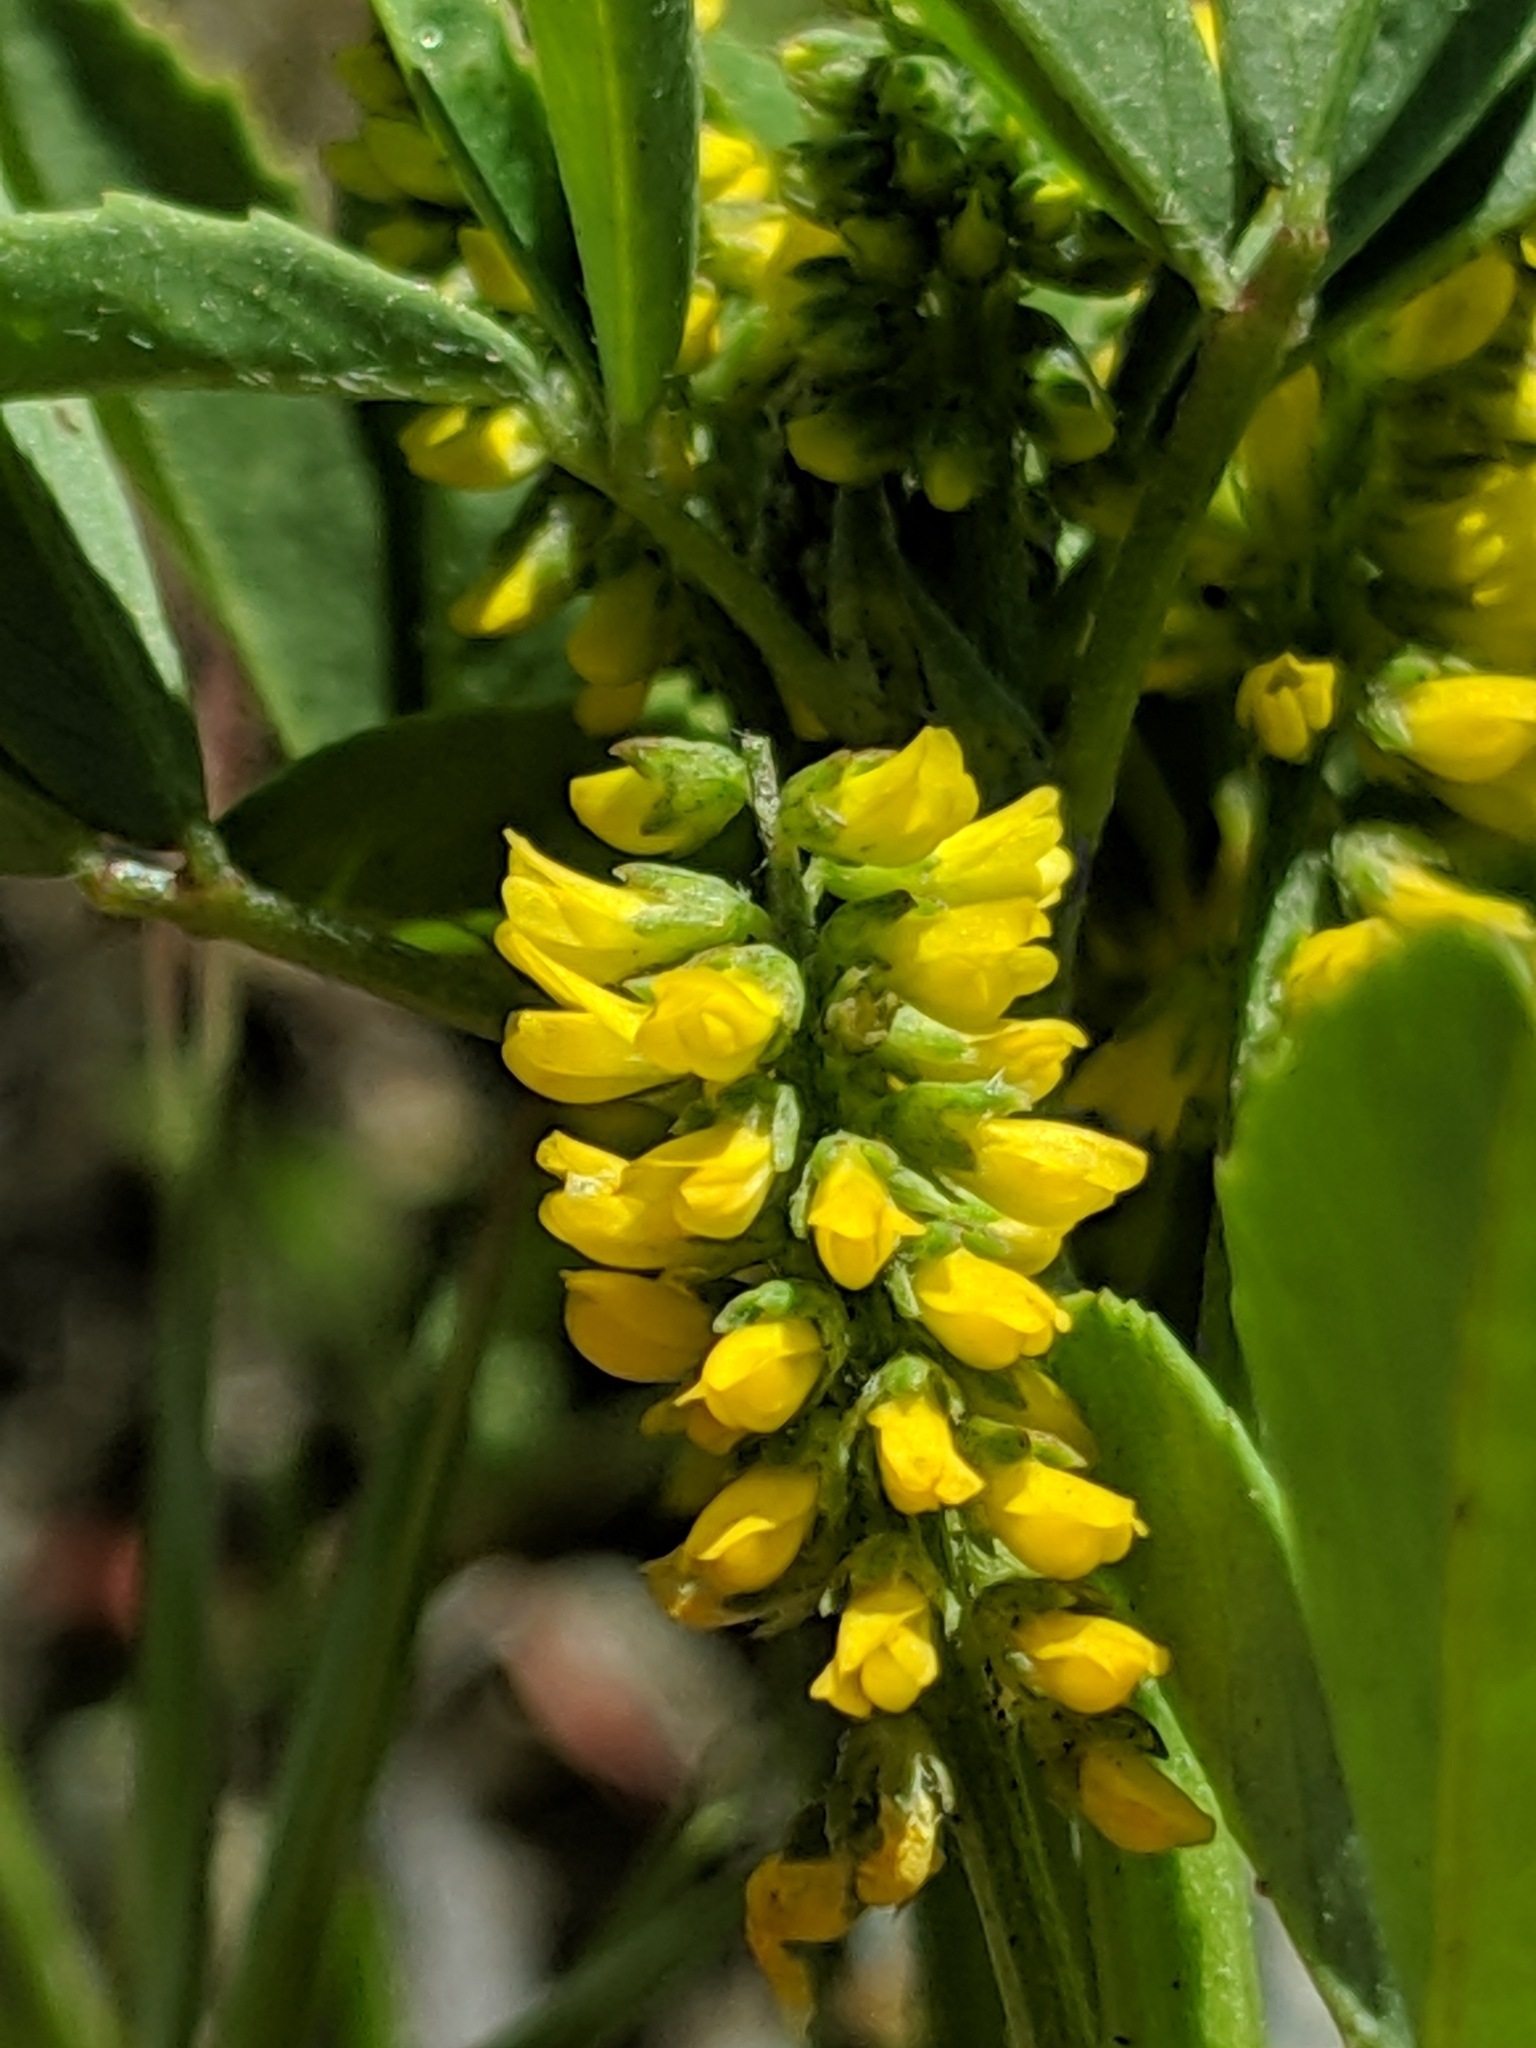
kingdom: Plantae
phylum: Tracheophyta
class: Magnoliopsida
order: Fabales
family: Fabaceae
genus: Melilotus
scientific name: Melilotus indicus
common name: Small melilot
